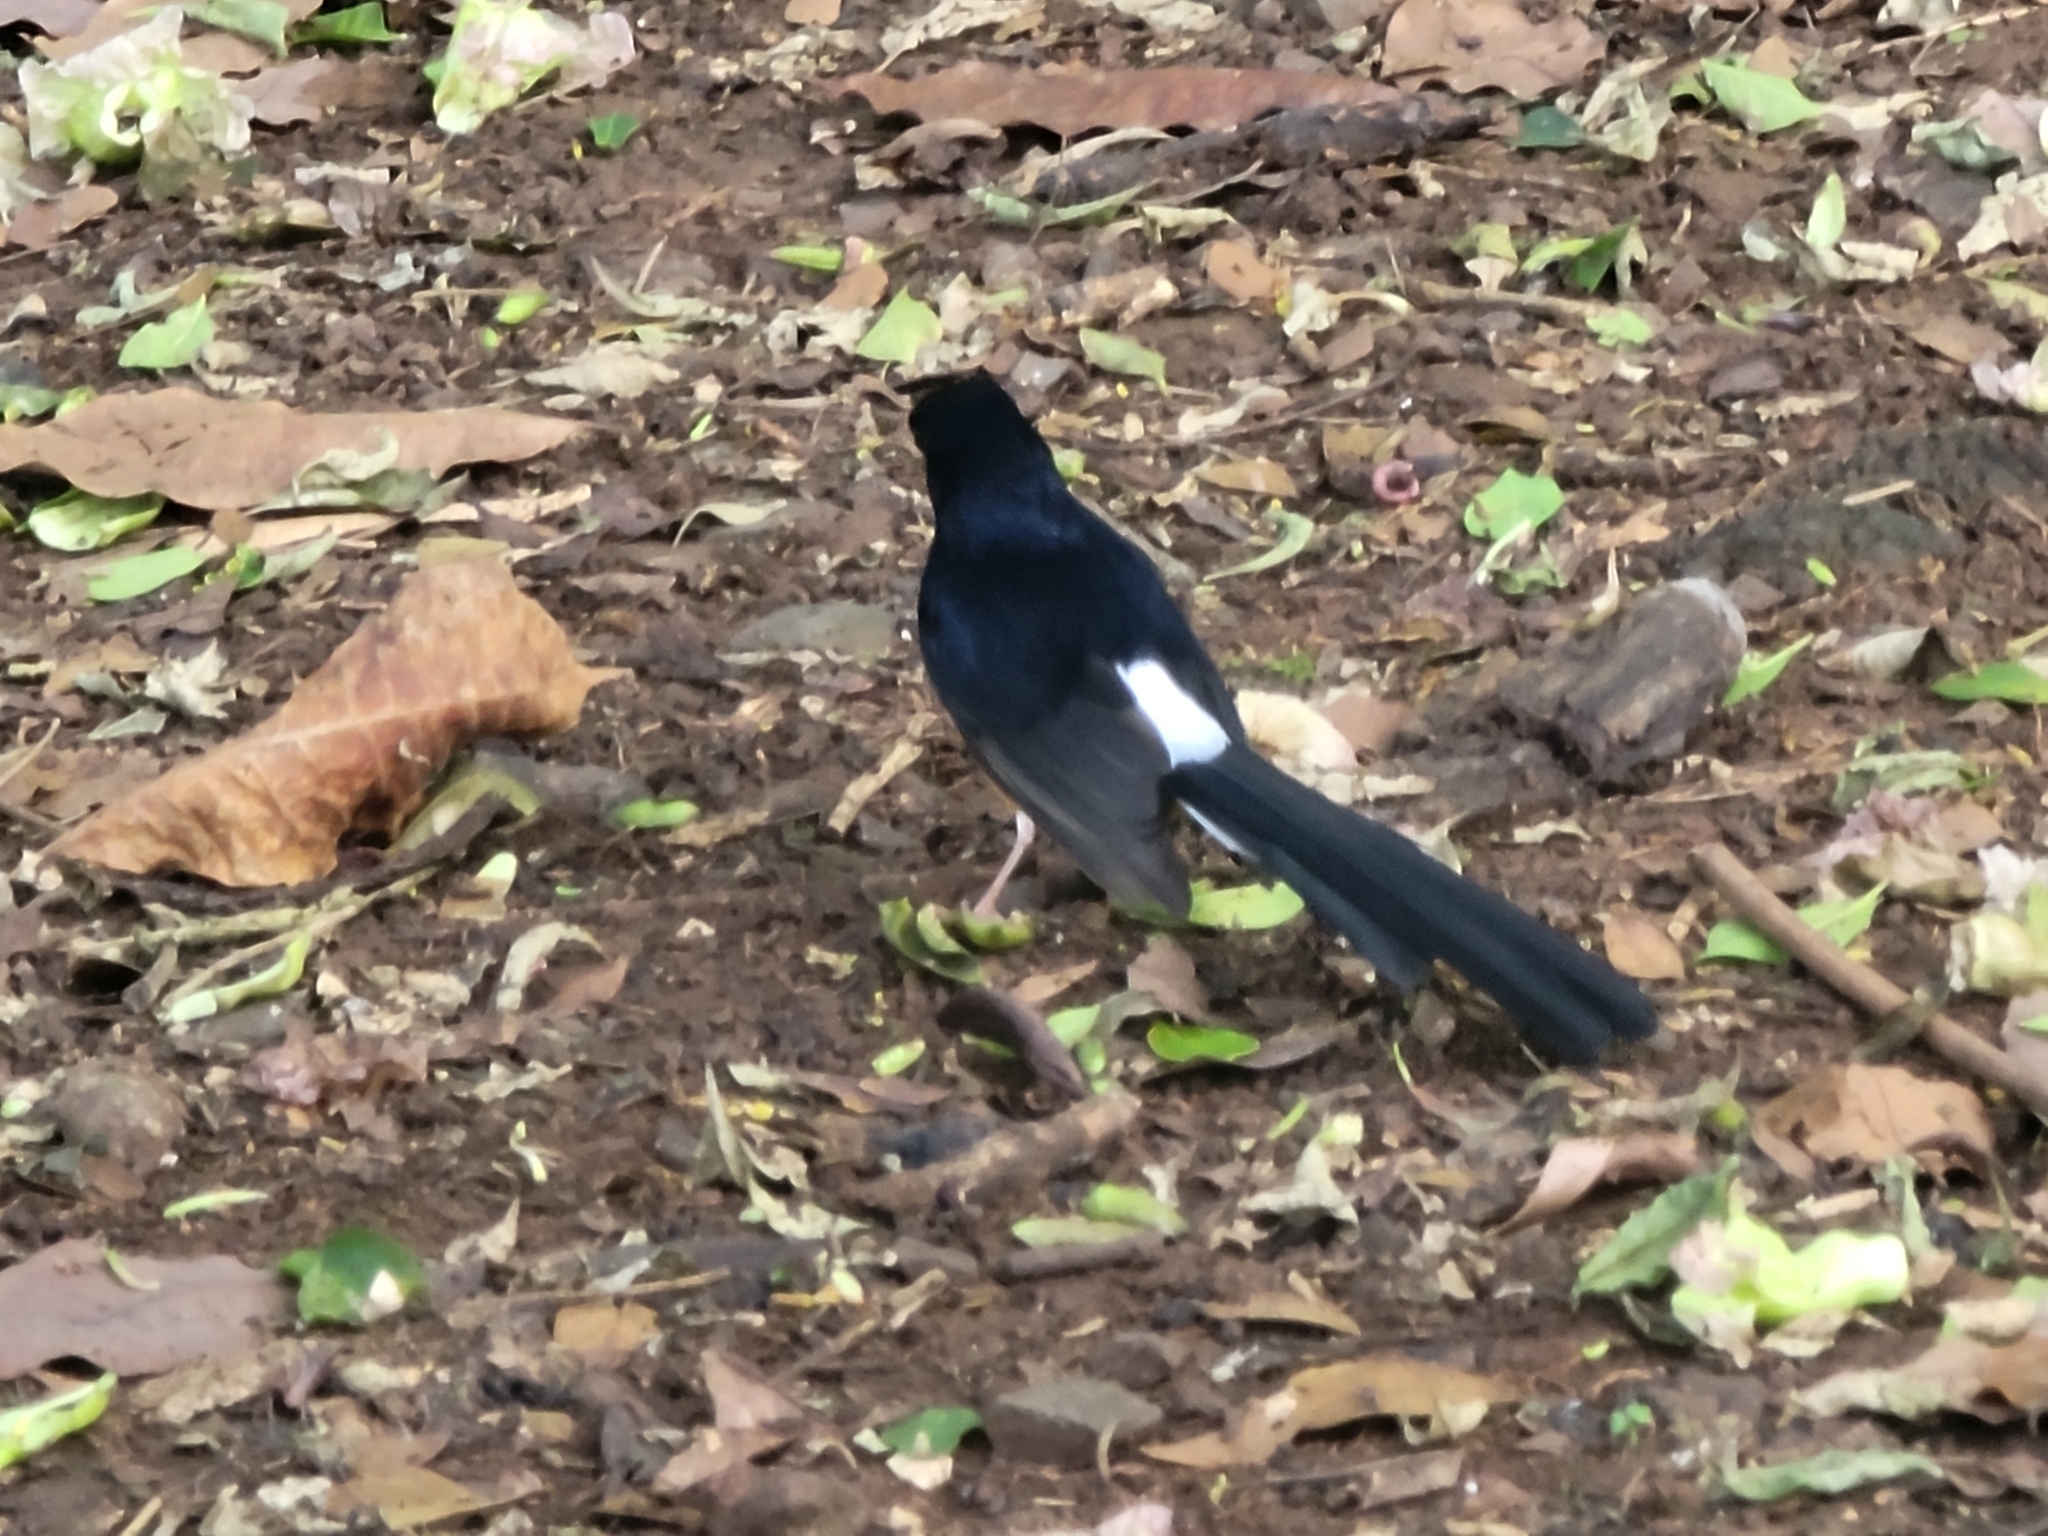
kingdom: Animalia
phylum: Chordata
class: Aves
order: Passeriformes
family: Muscicapidae
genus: Copsychus
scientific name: Copsychus malabaricus
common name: White-rumped shama
